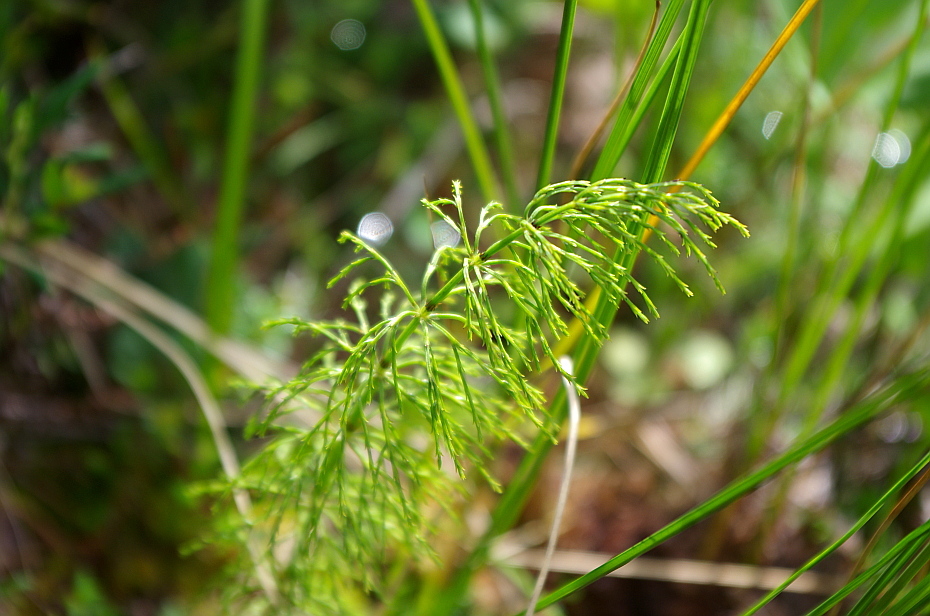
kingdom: Plantae
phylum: Tracheophyta
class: Polypodiopsida
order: Equisetales
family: Equisetaceae
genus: Equisetum
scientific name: Equisetum sylvaticum
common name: Wood horsetail
